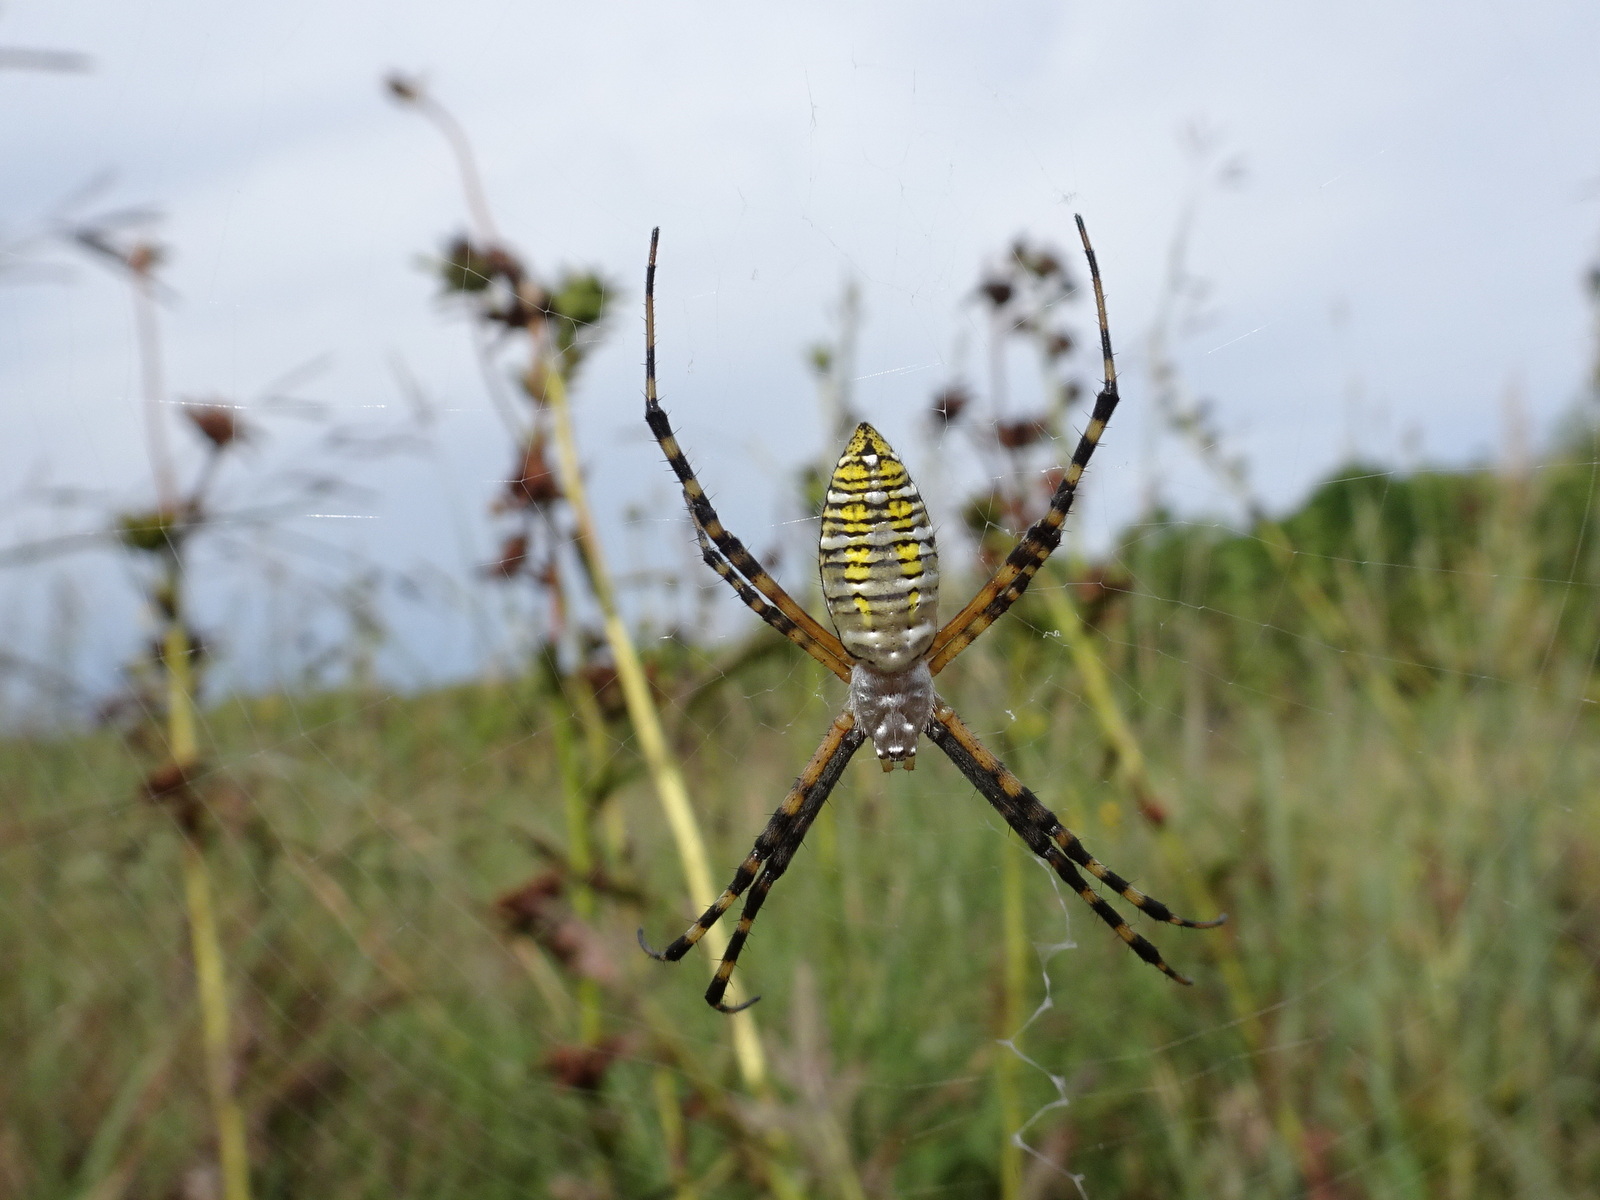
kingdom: Animalia
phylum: Arthropoda
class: Arachnida
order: Araneae
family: Araneidae
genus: Argiope
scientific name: Argiope trifasciata
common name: Banded garden spider
